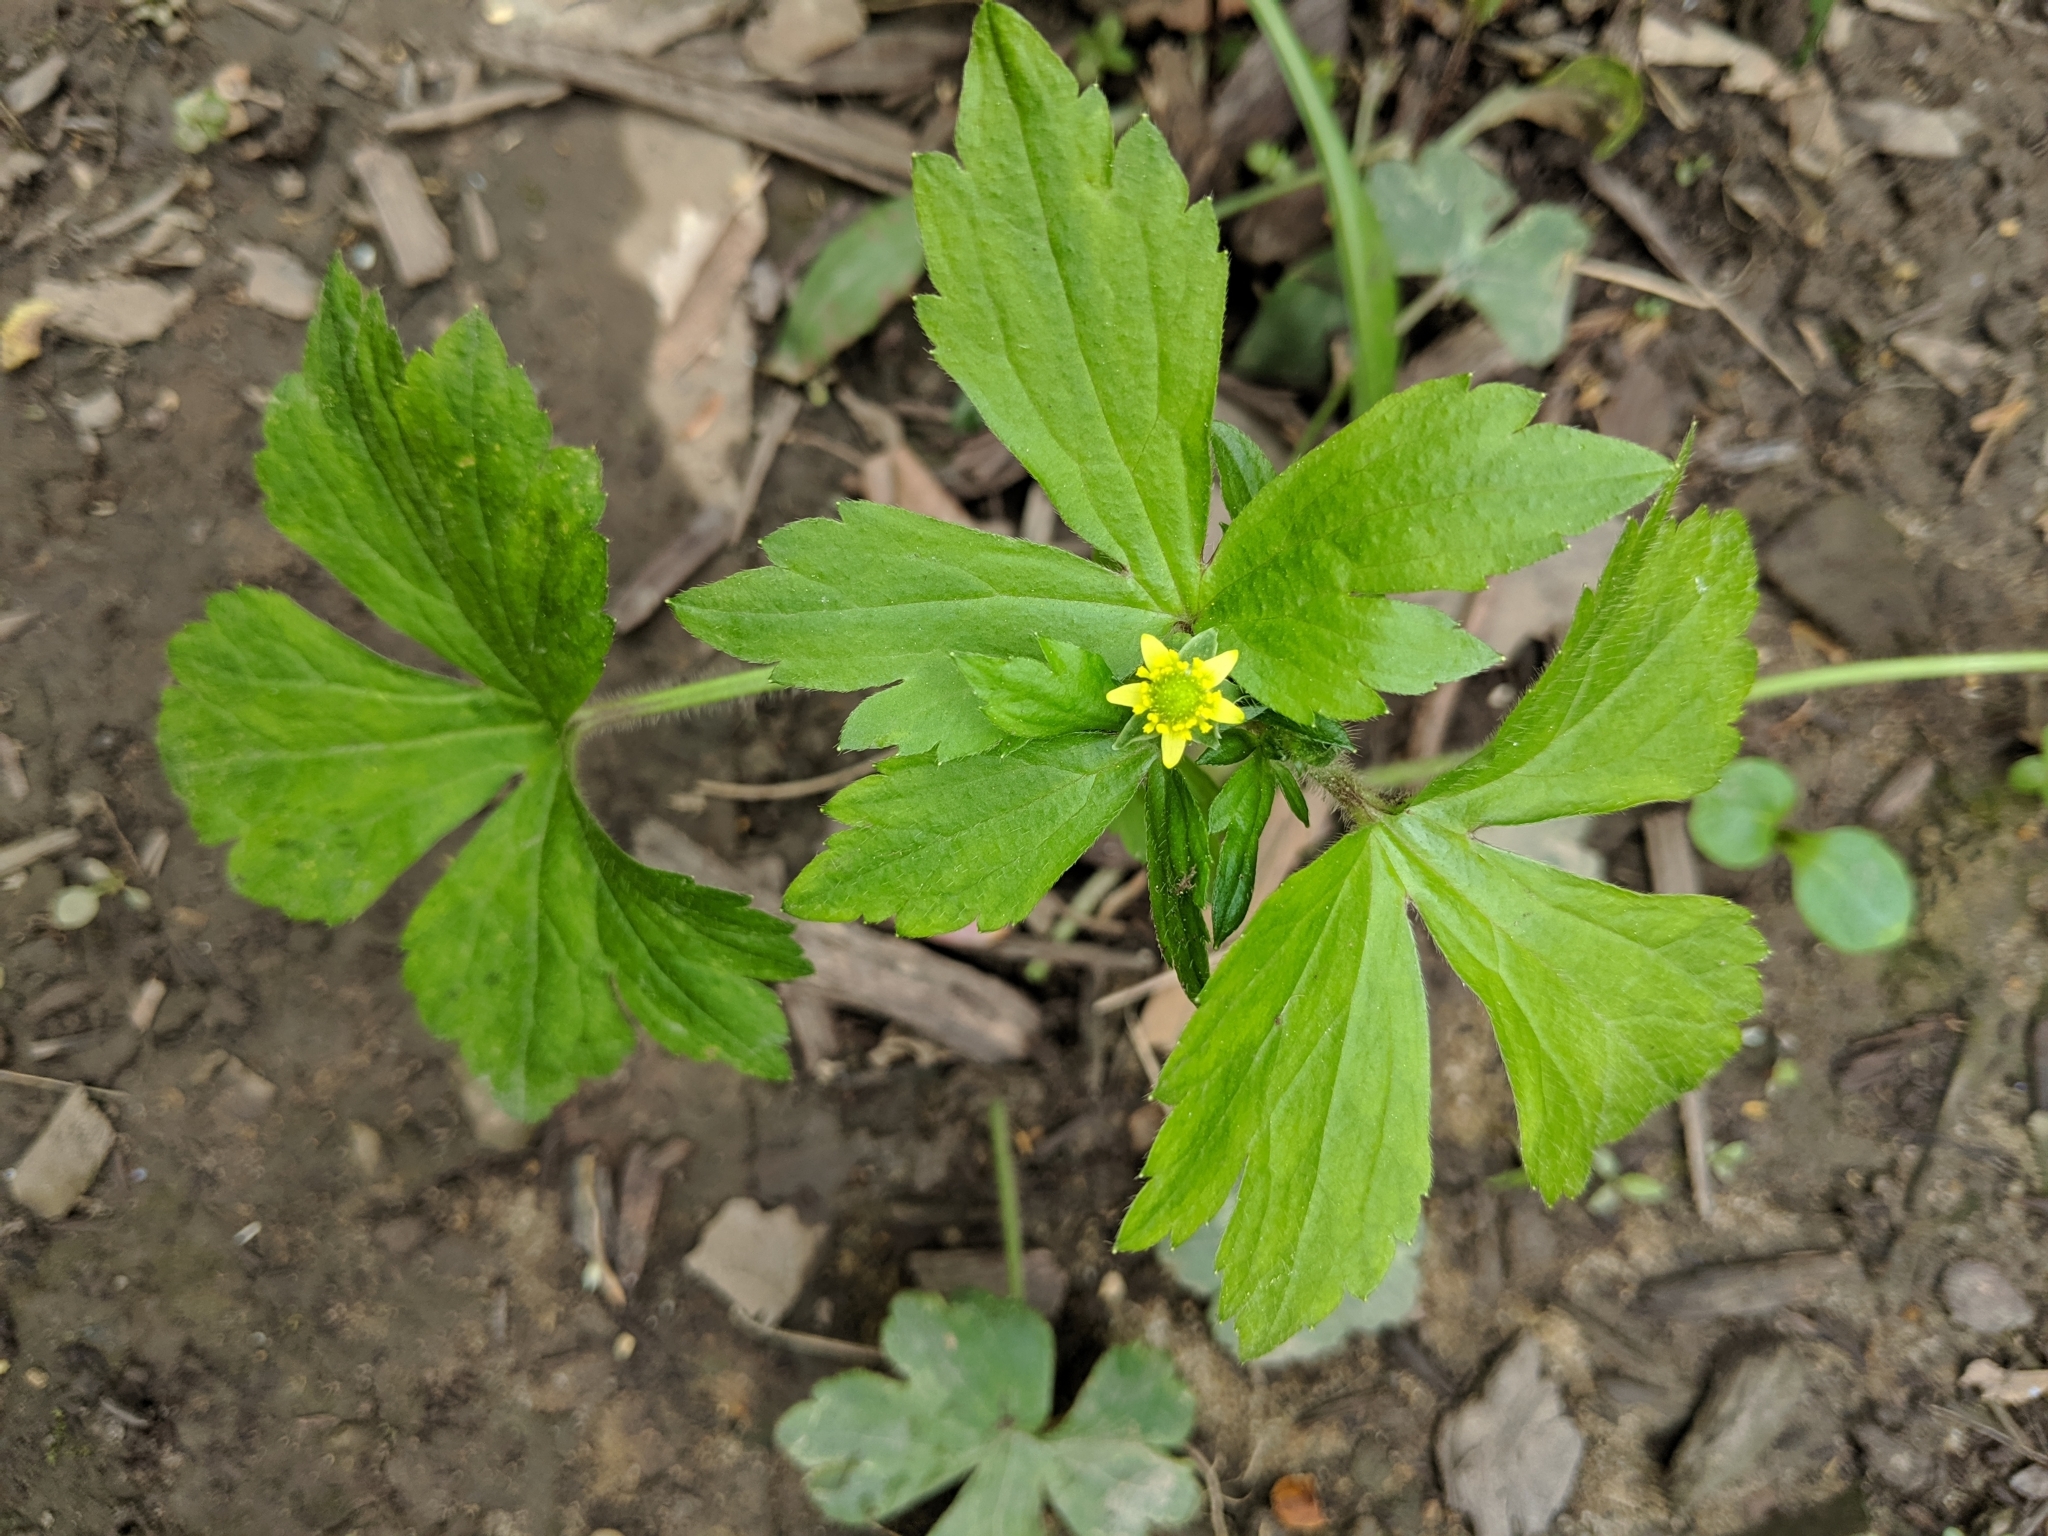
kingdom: Plantae
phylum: Tracheophyta
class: Magnoliopsida
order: Ranunculales
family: Ranunculaceae
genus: Ranunculus
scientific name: Ranunculus recurvatus
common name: Blisterwort
